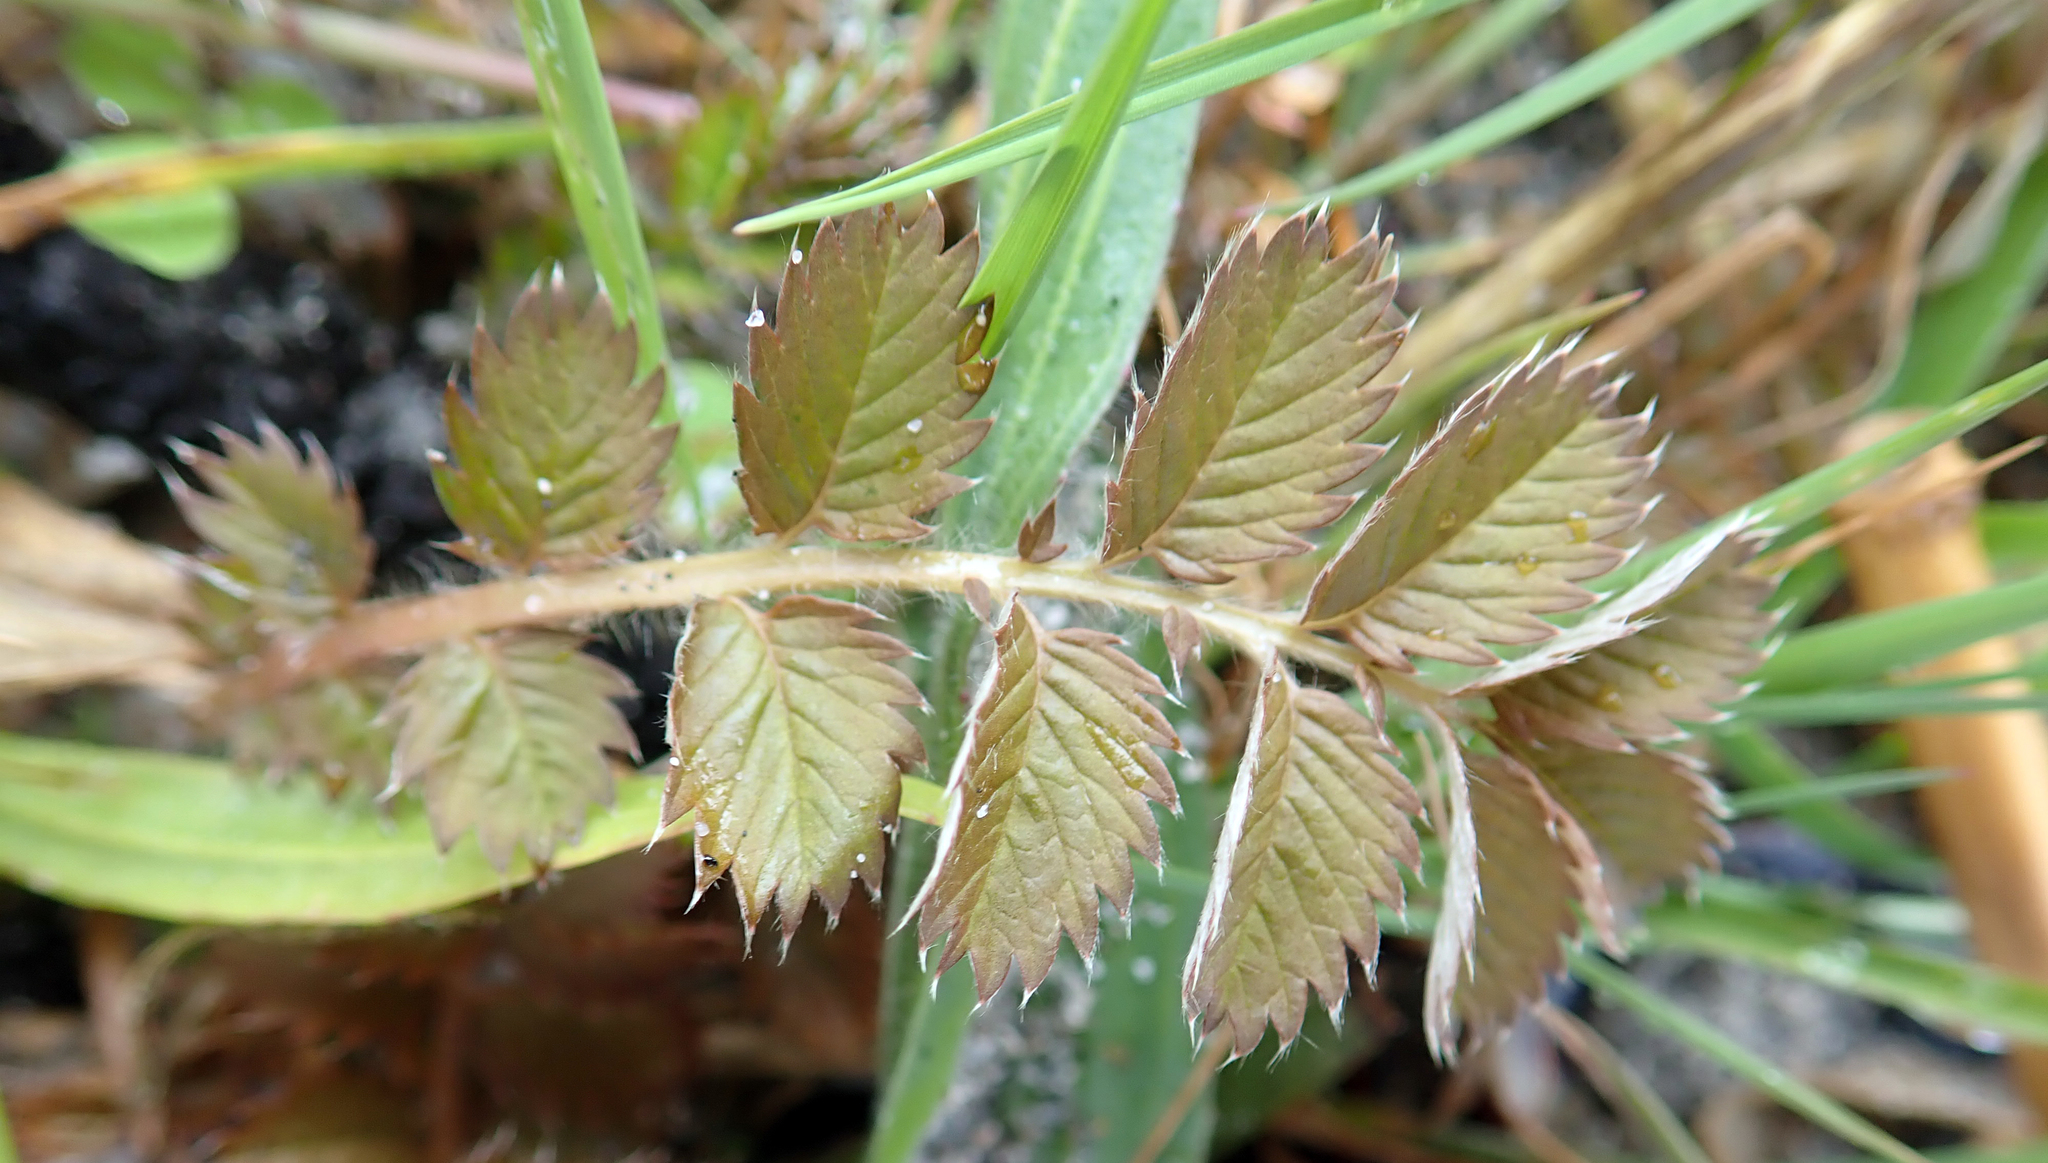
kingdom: Plantae
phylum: Tracheophyta
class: Magnoliopsida
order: Rosales
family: Rosaceae
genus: Argentina
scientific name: Argentina anserinoides
